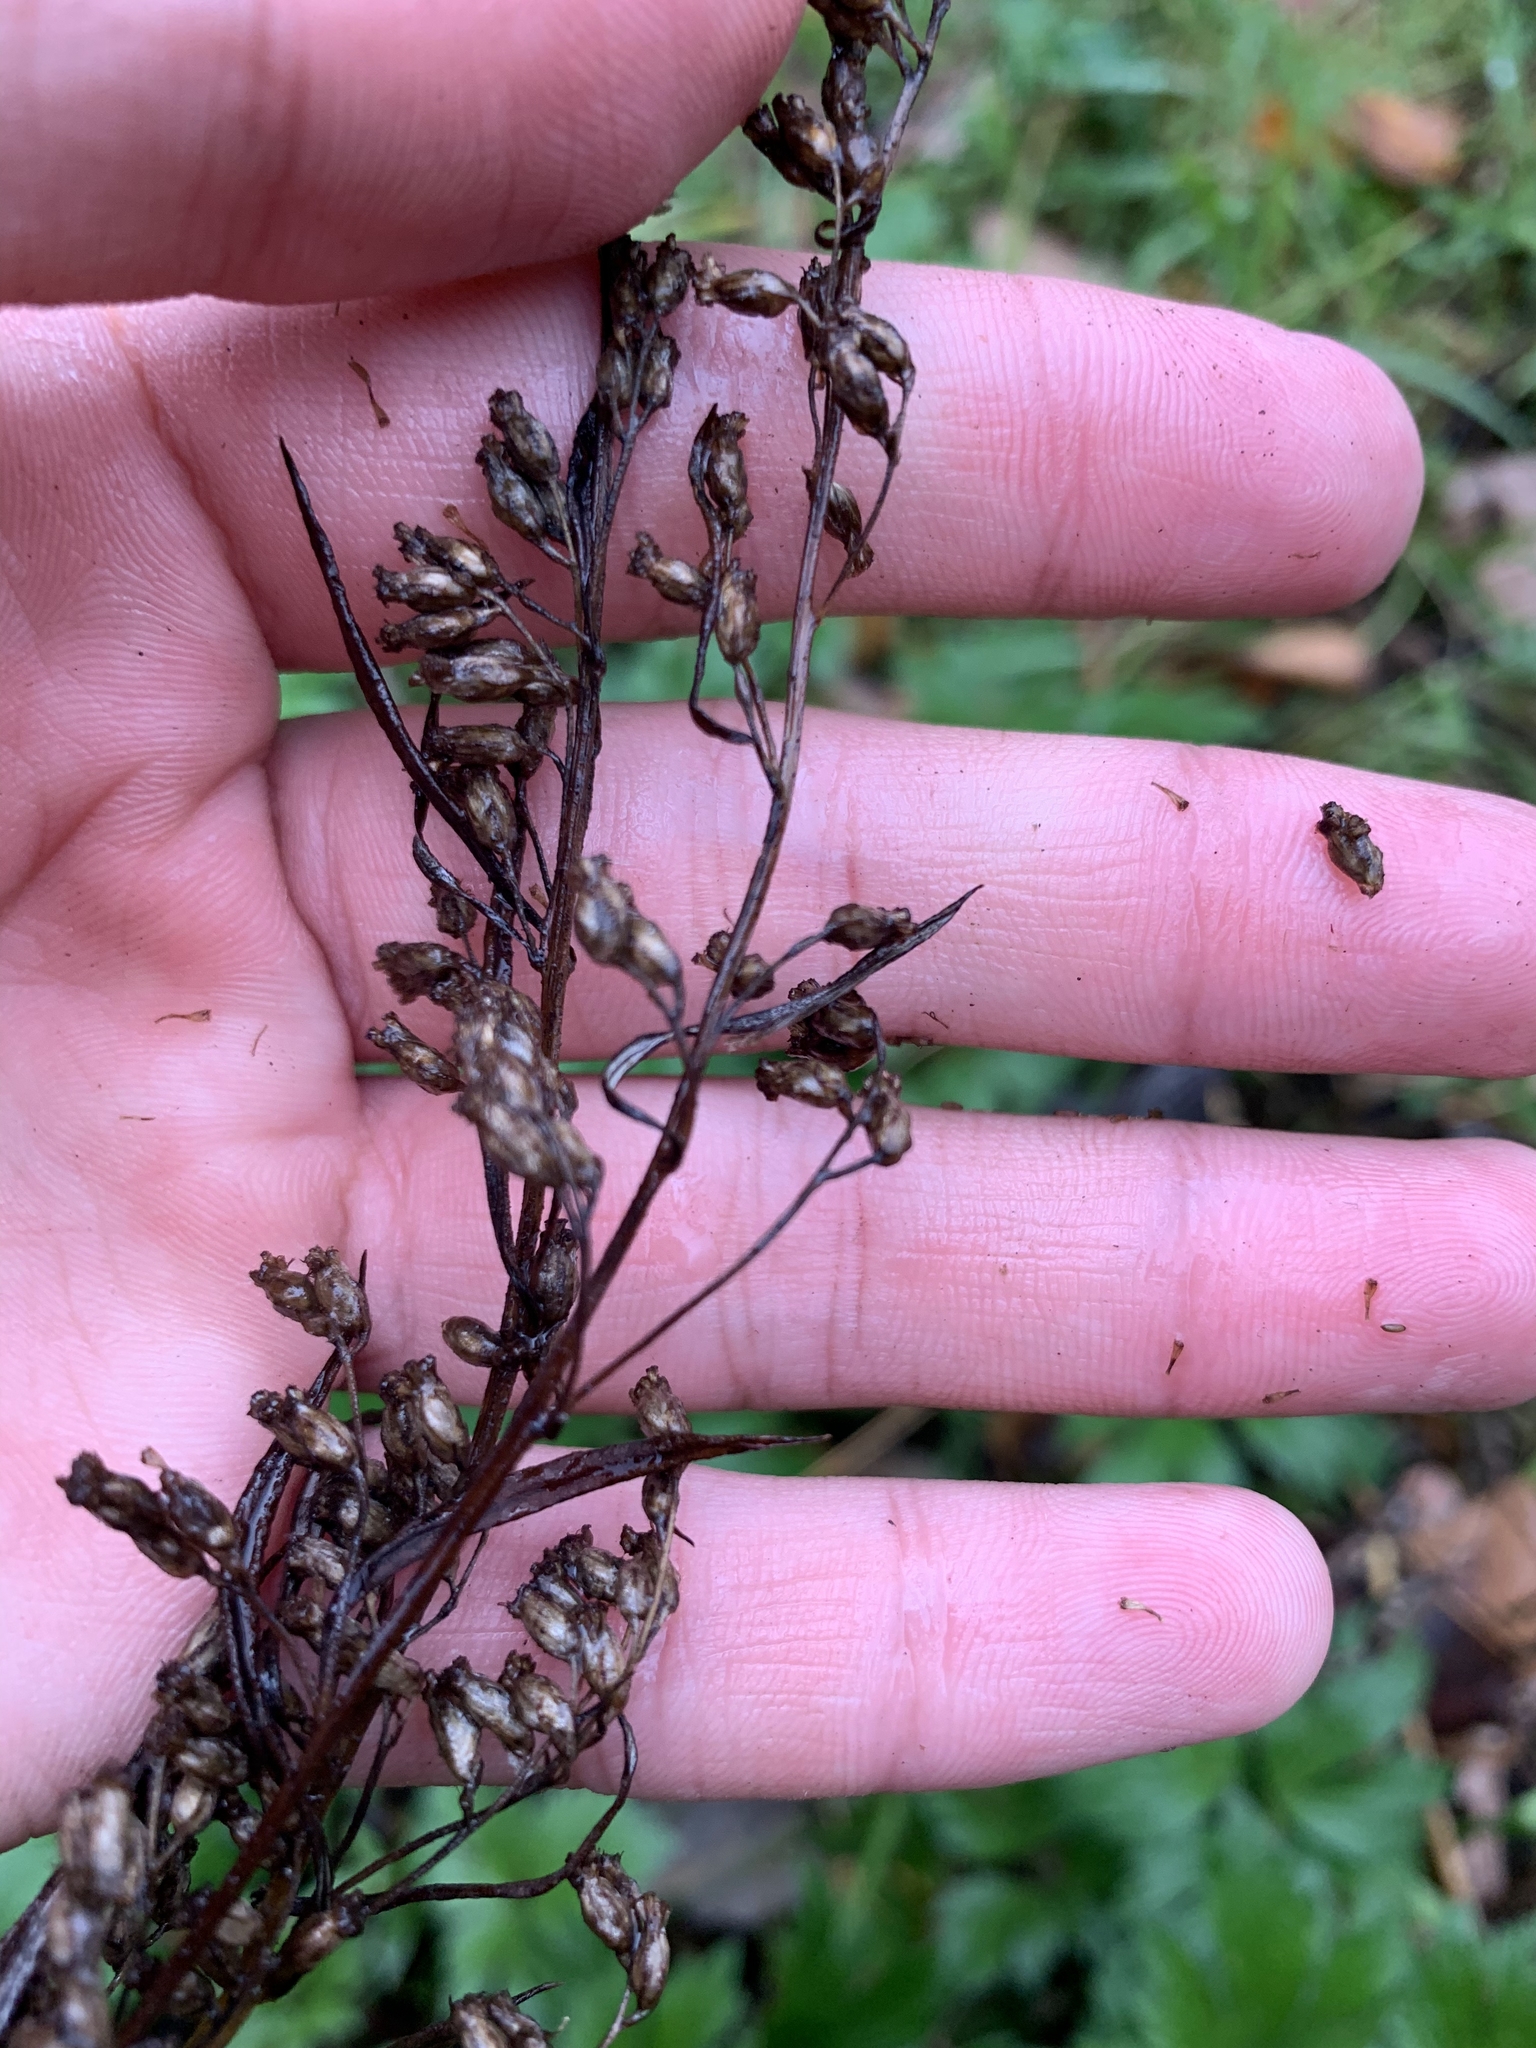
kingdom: Plantae
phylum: Tracheophyta
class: Magnoliopsida
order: Asterales
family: Asteraceae
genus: Artemisia
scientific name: Artemisia vulgaris
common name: Mugwort
